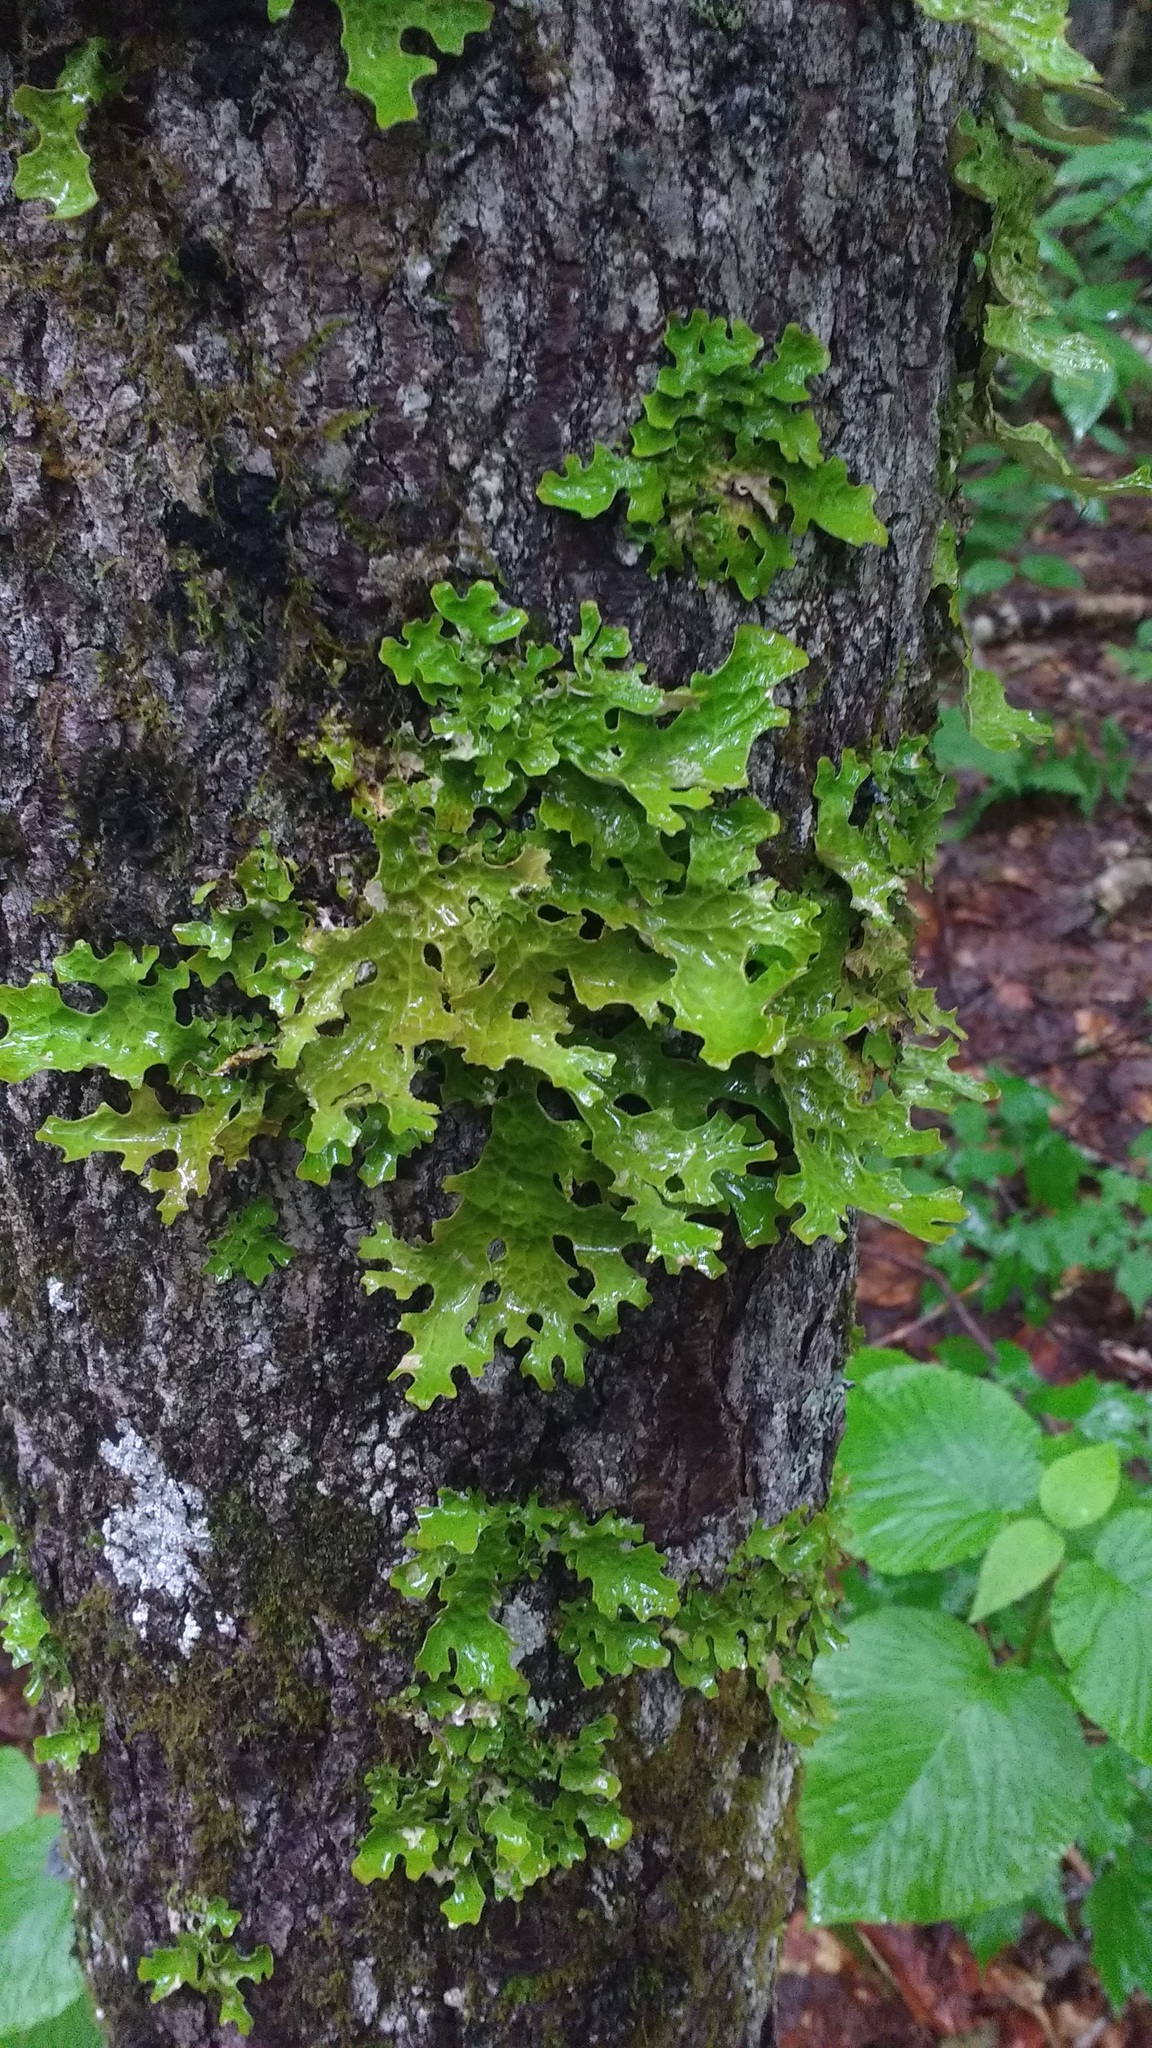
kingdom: Fungi
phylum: Ascomycota
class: Lecanoromycetes
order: Peltigerales
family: Lobariaceae
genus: Lobaria
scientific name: Lobaria pulmonaria
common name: Lungwort
